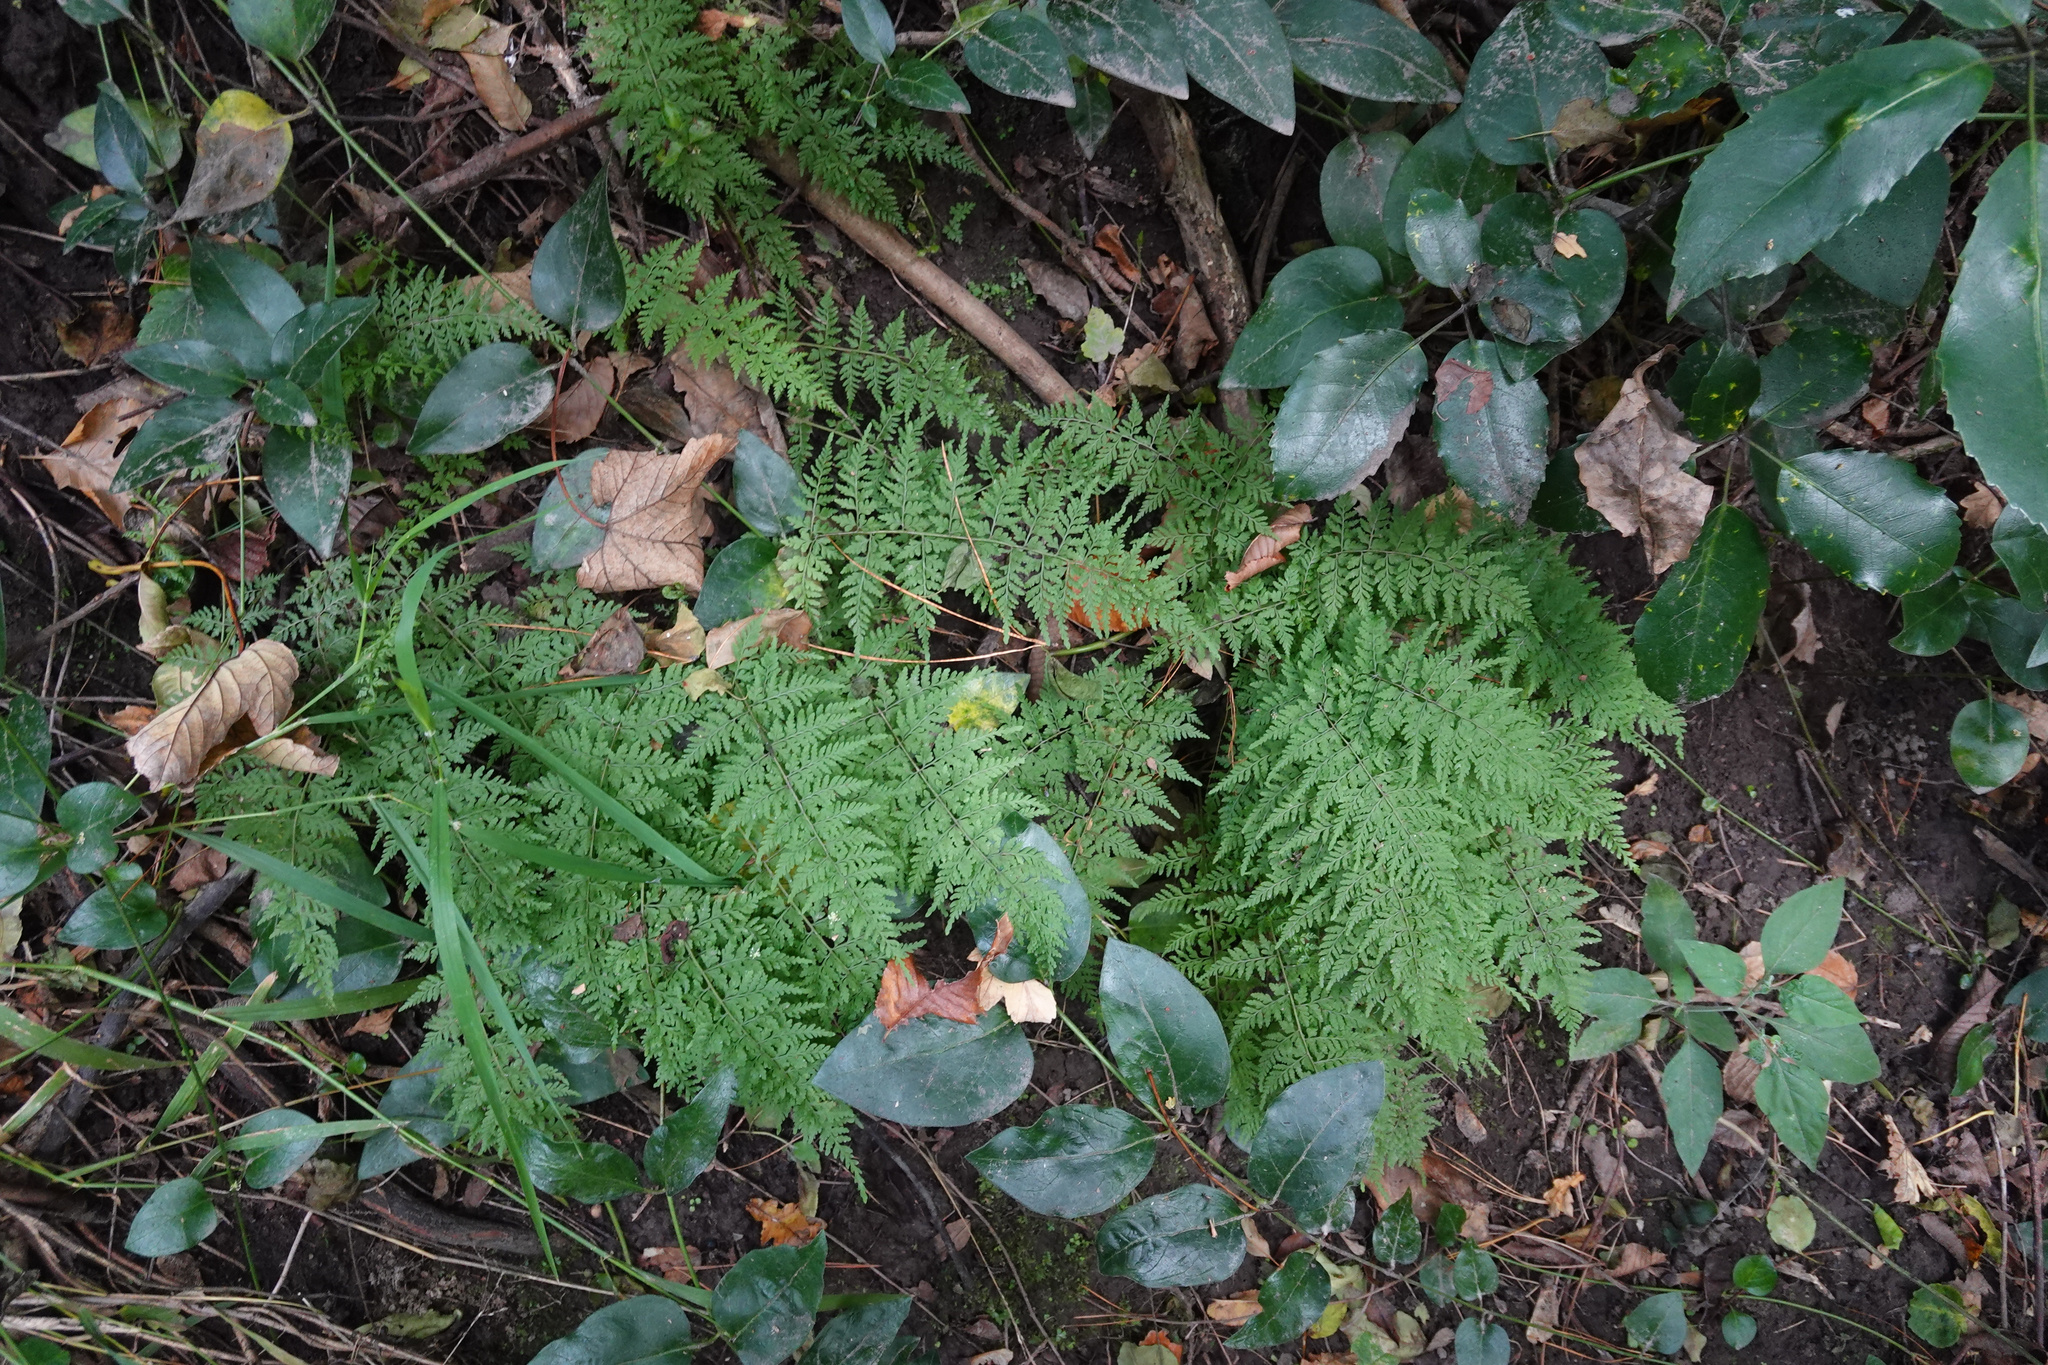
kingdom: Plantae
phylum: Tracheophyta
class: Polypodiopsida
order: Polypodiales
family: Cystopteridaceae
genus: Cystopteris
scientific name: Cystopteris fragilis
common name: Brittle bladder fern
